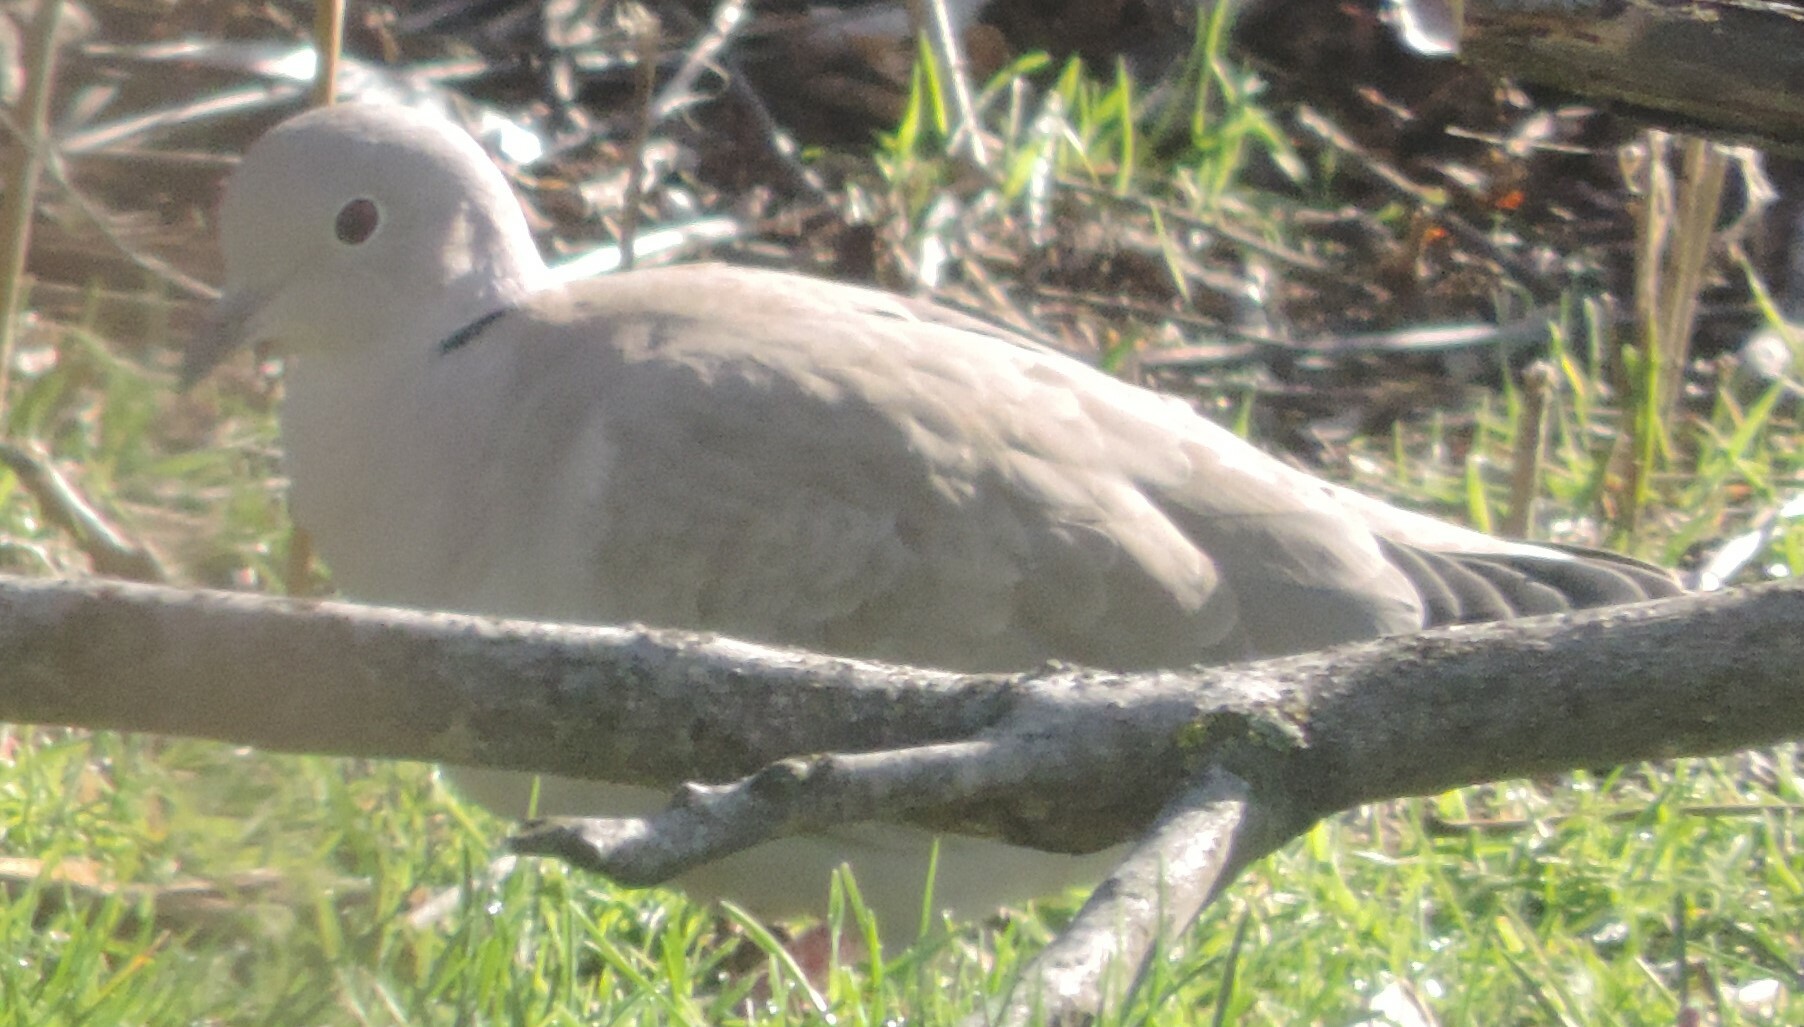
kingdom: Animalia
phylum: Chordata
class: Aves
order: Columbiformes
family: Columbidae
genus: Streptopelia
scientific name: Streptopelia decaocto
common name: Eurasian collared dove
